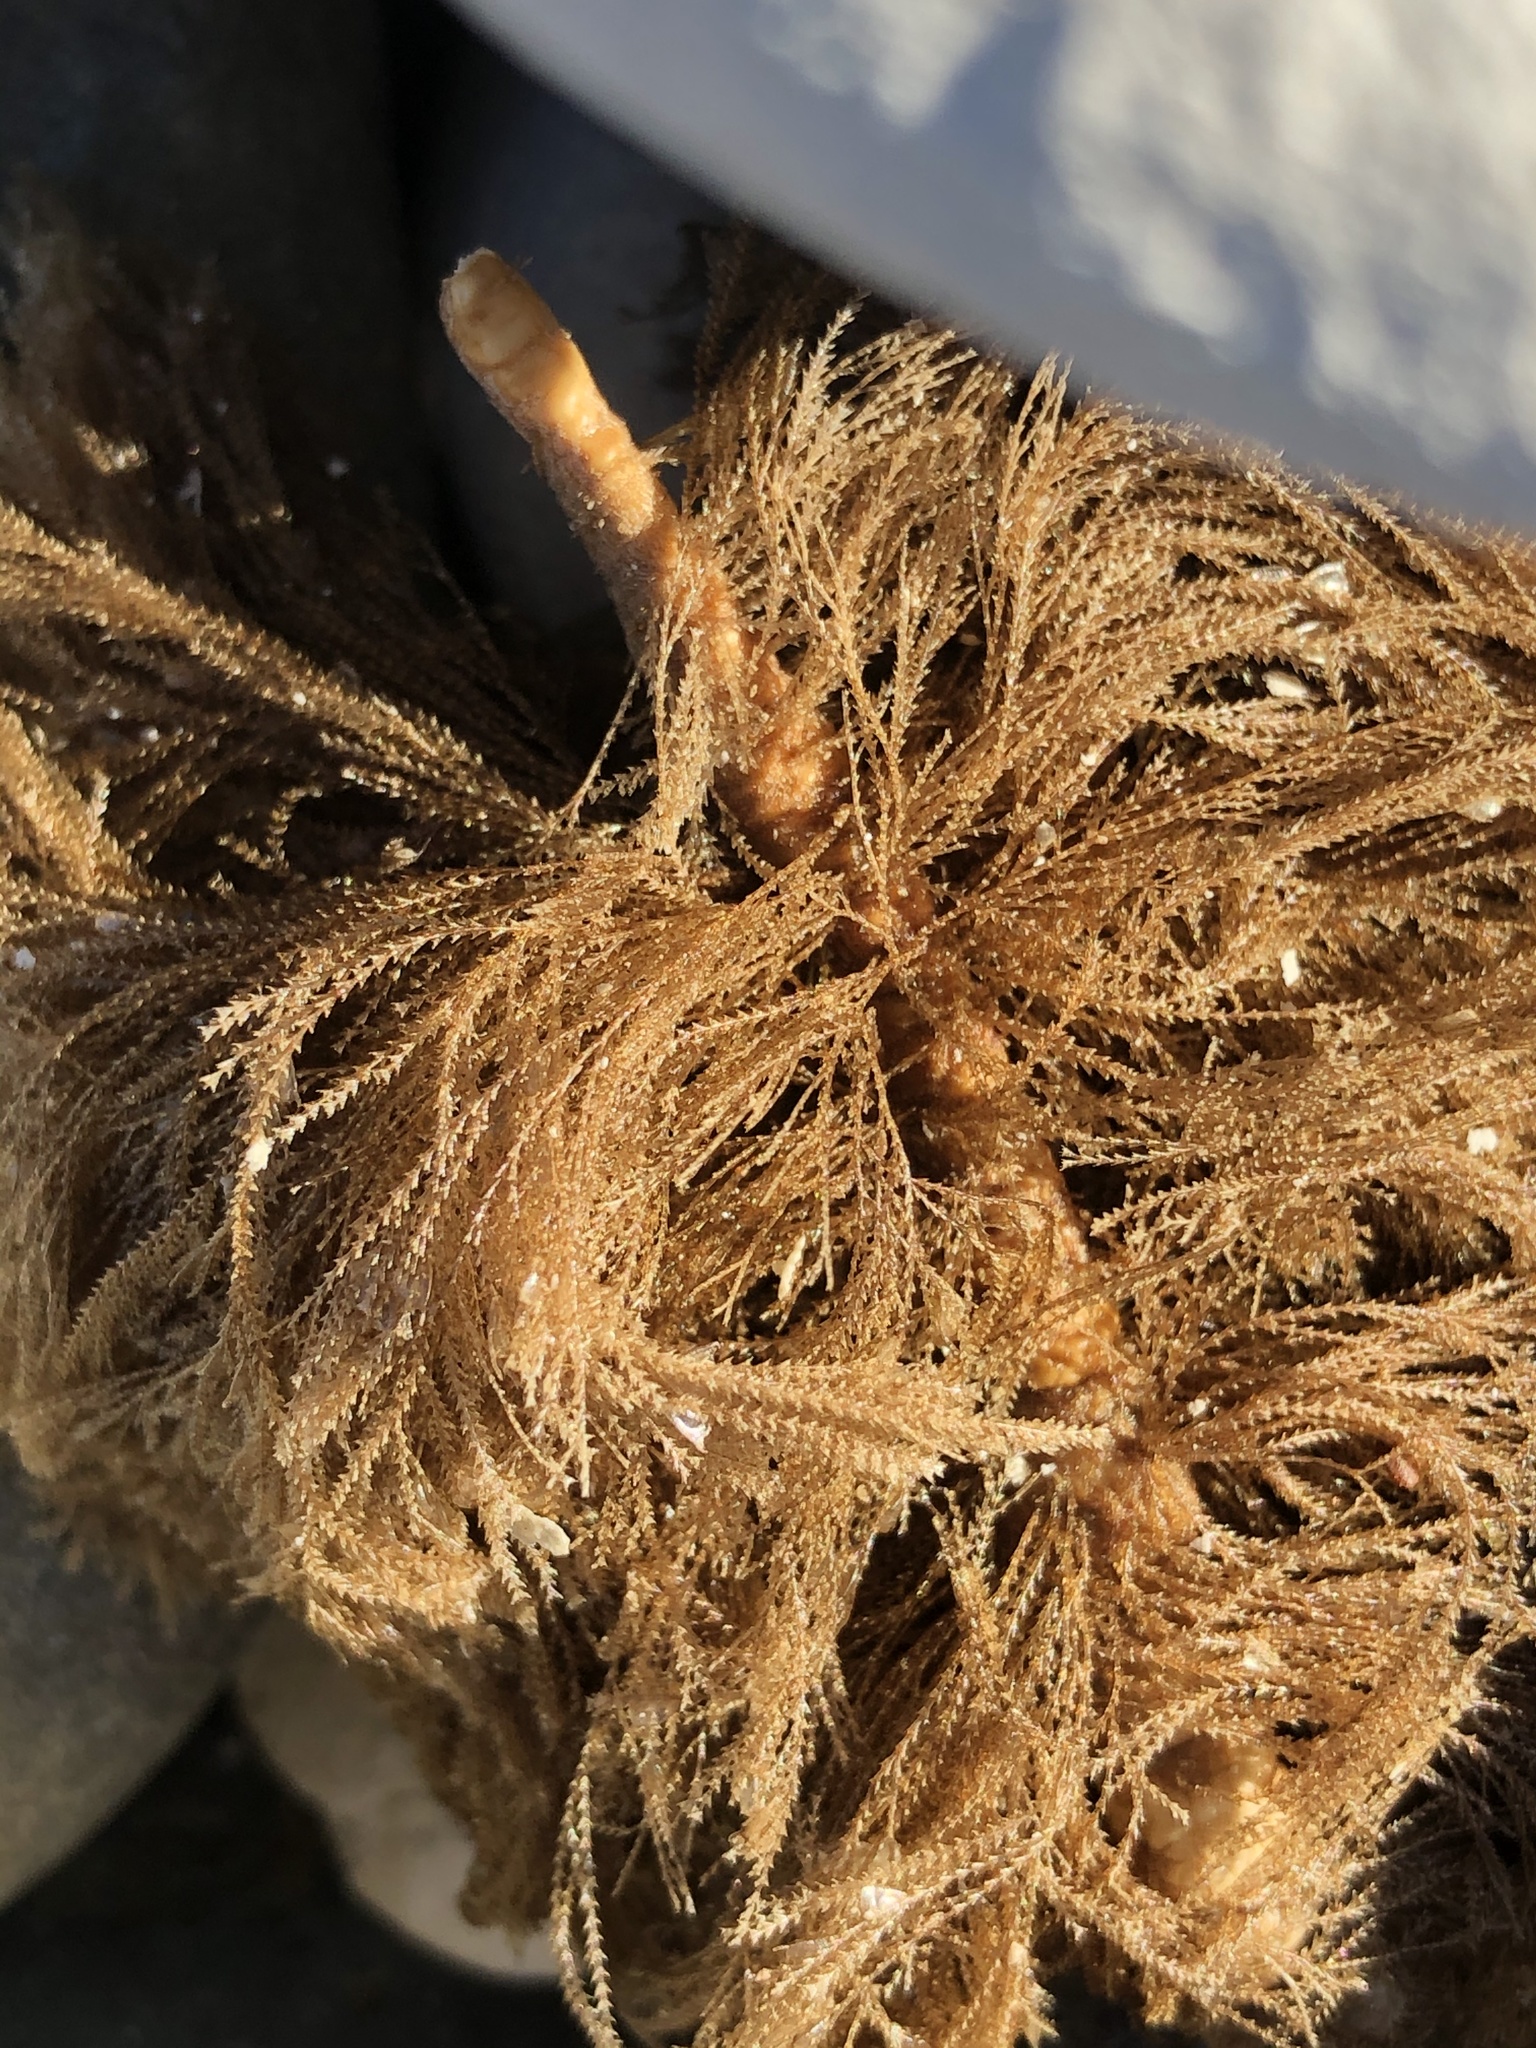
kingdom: Animalia
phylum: Cnidaria
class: Hydrozoa
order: Leptothecata
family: Sertulariidae
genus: Amphisbetia
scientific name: Amphisbetia bispinosa
